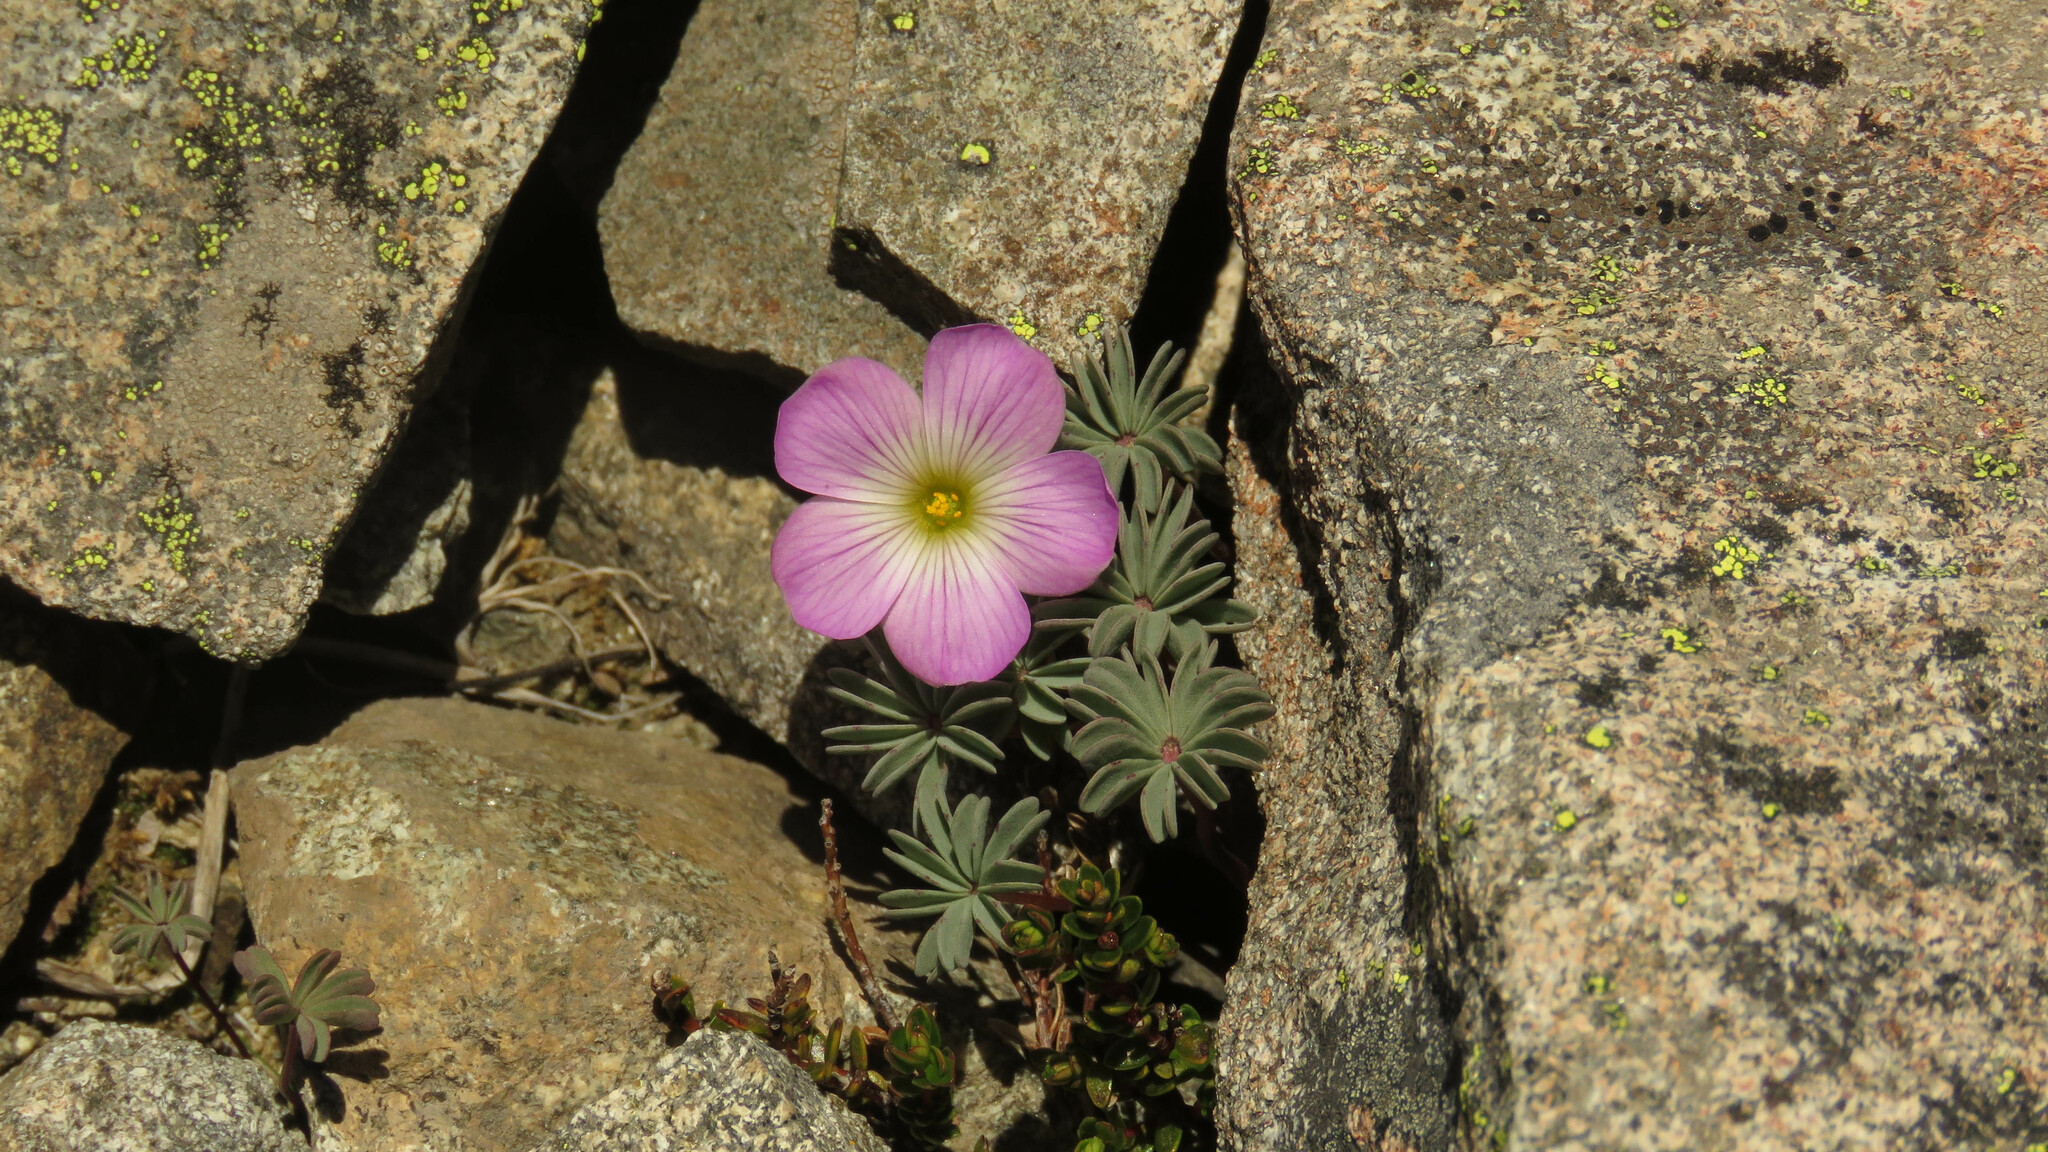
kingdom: Plantae
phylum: Tracheophyta
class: Magnoliopsida
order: Oxalidales
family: Oxalidaceae
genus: Oxalis
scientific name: Oxalis adenophylla
